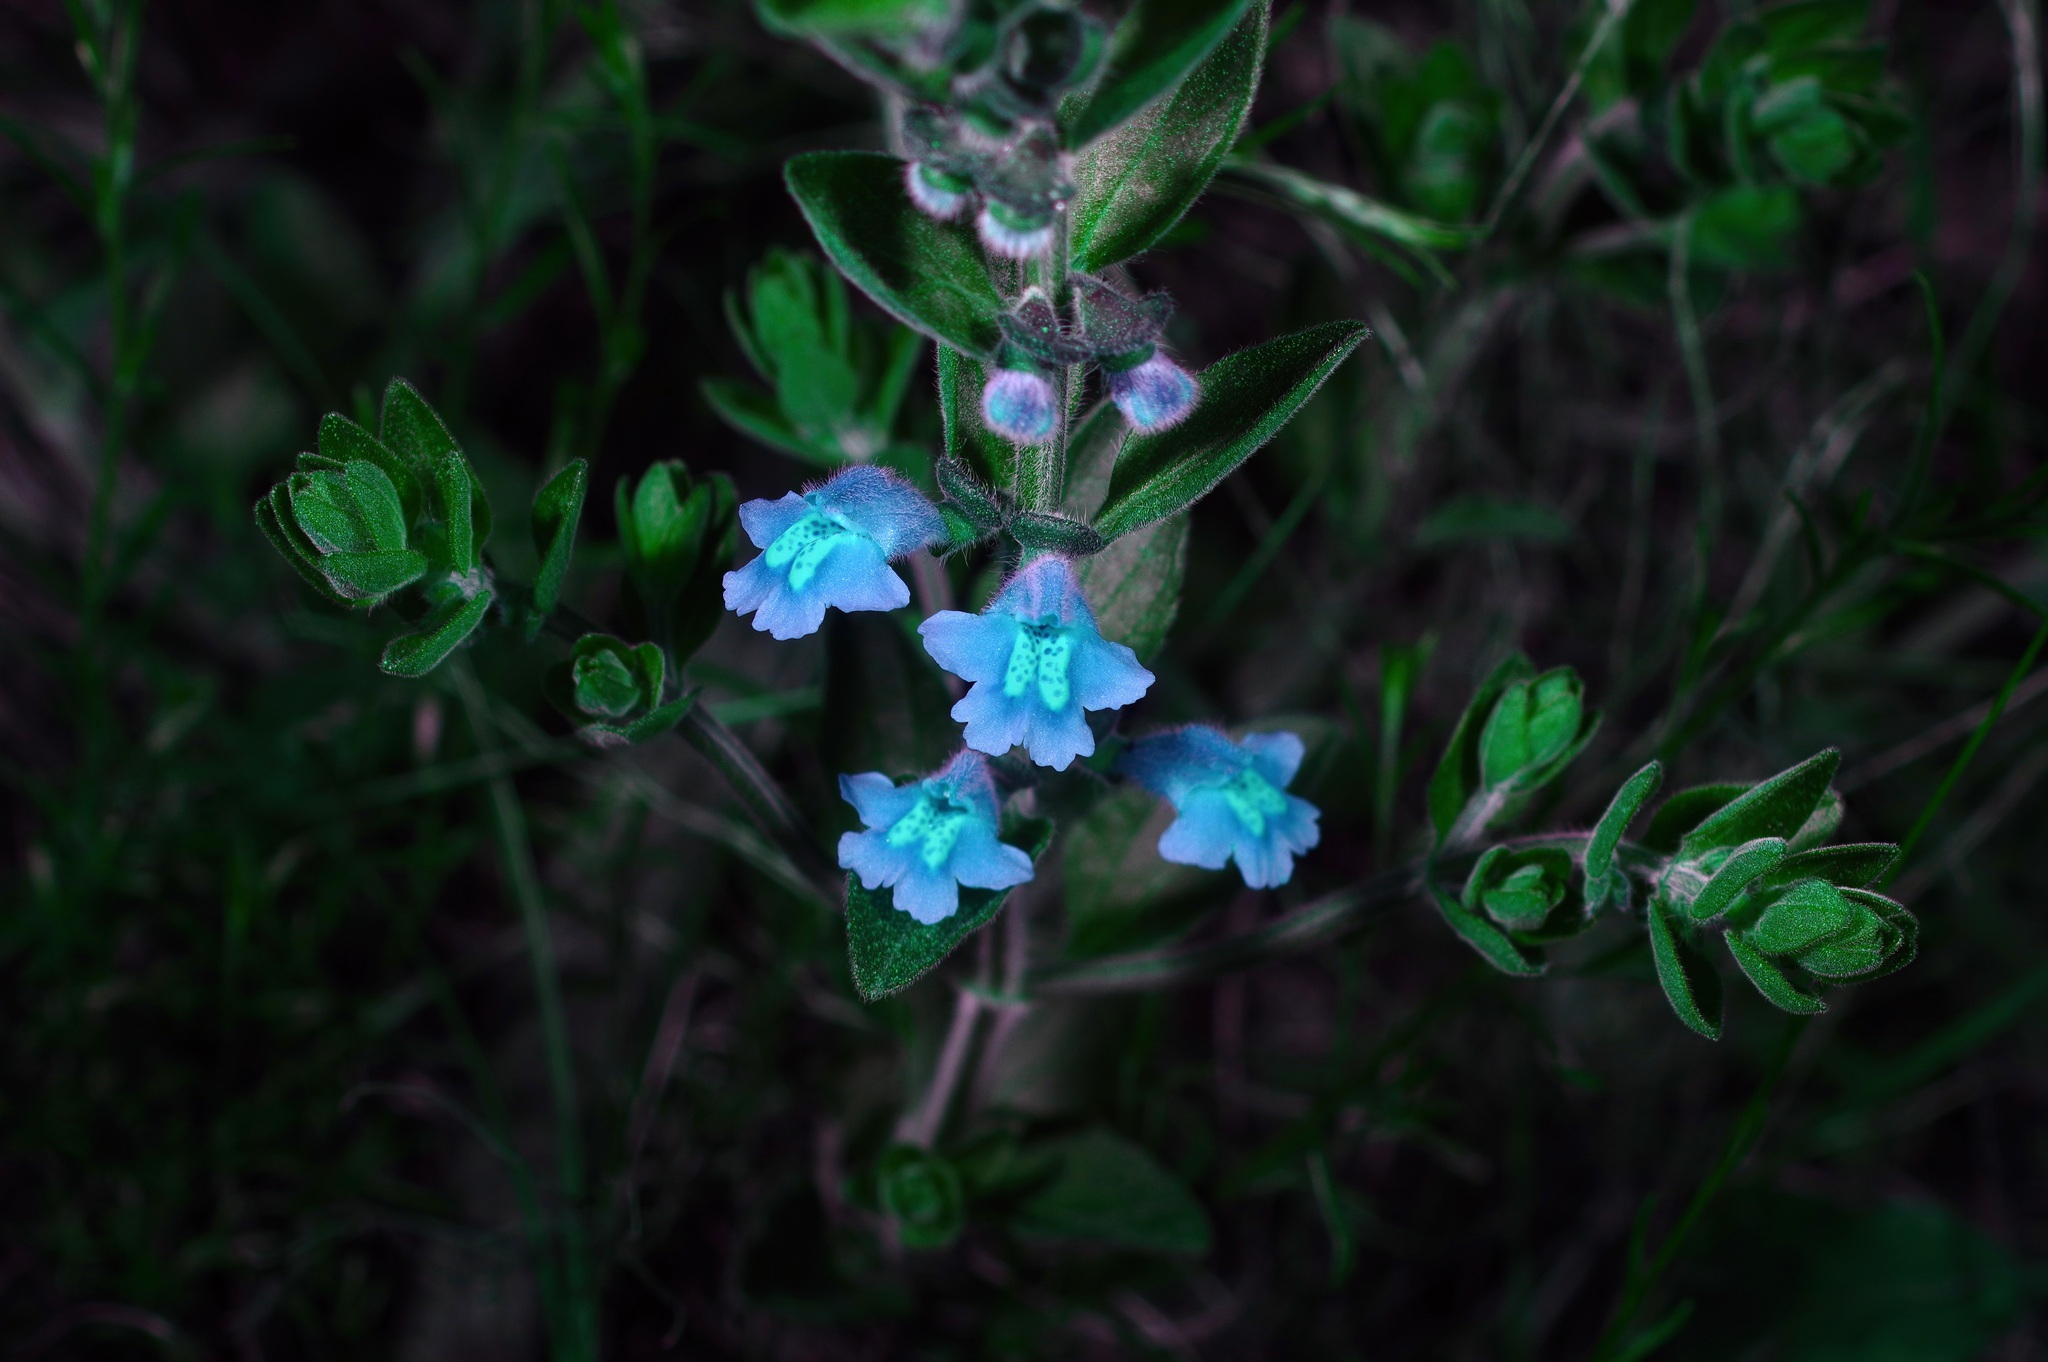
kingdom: Plantae
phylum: Tracheophyta
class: Magnoliopsida
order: Lamiales
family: Lamiaceae
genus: Scutellaria
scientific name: Scutellaria drummondii
